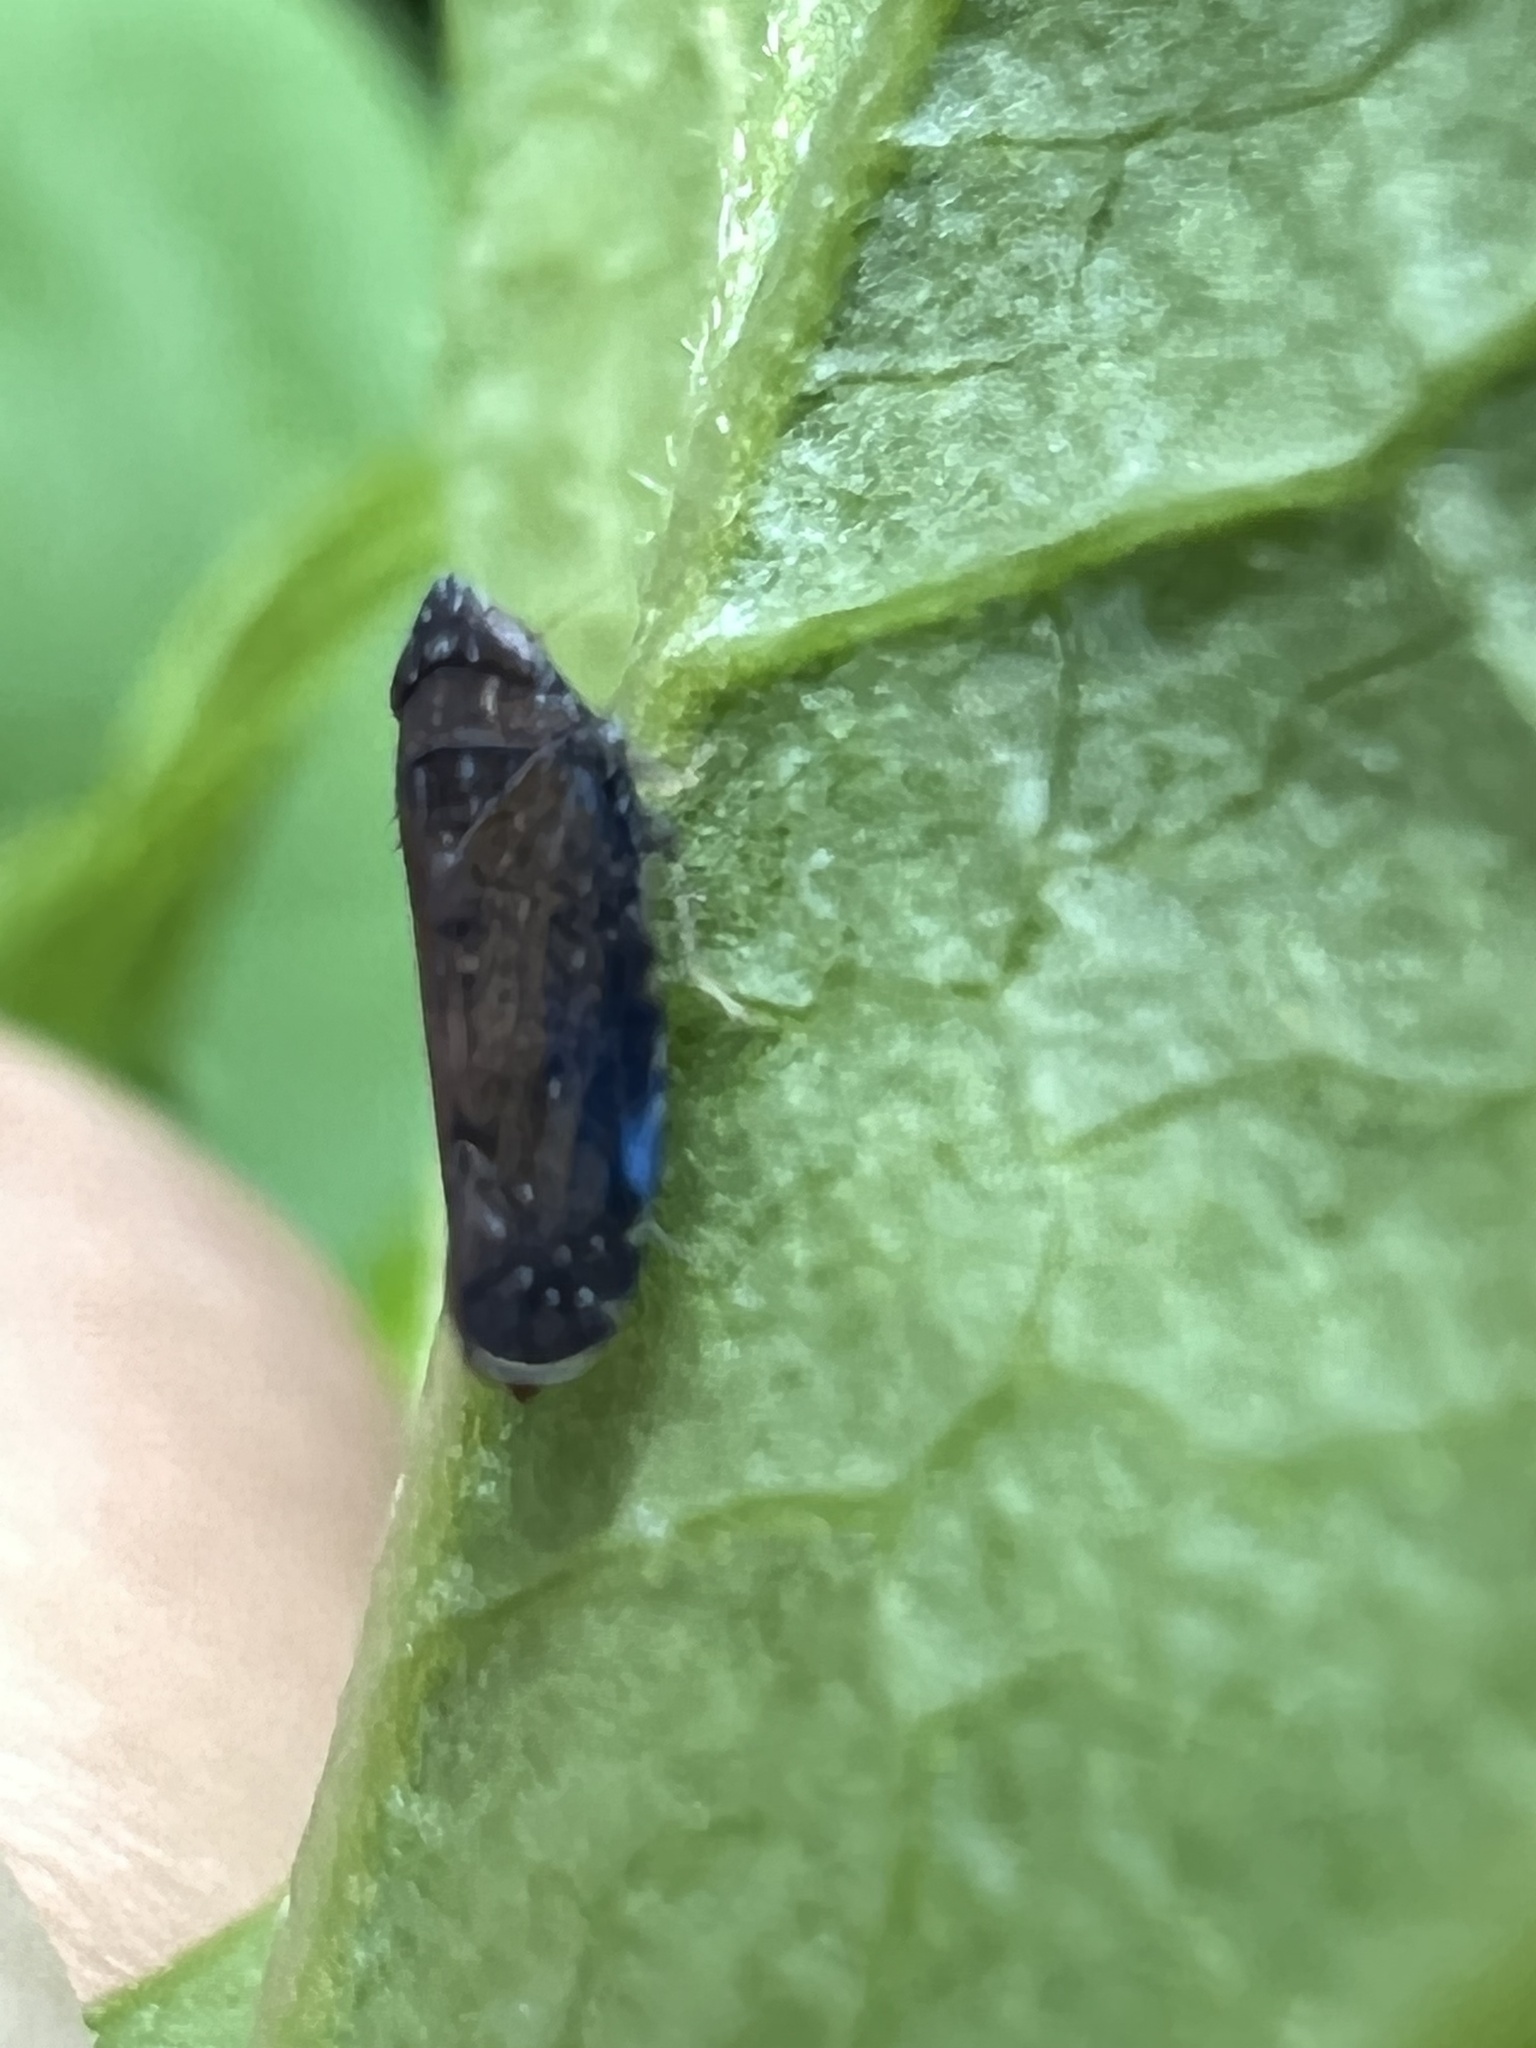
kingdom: Animalia
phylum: Arthropoda
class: Insecta
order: Hemiptera
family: Cicadellidae
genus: Scaphytopius
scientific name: Scaphytopius nigrifrons
